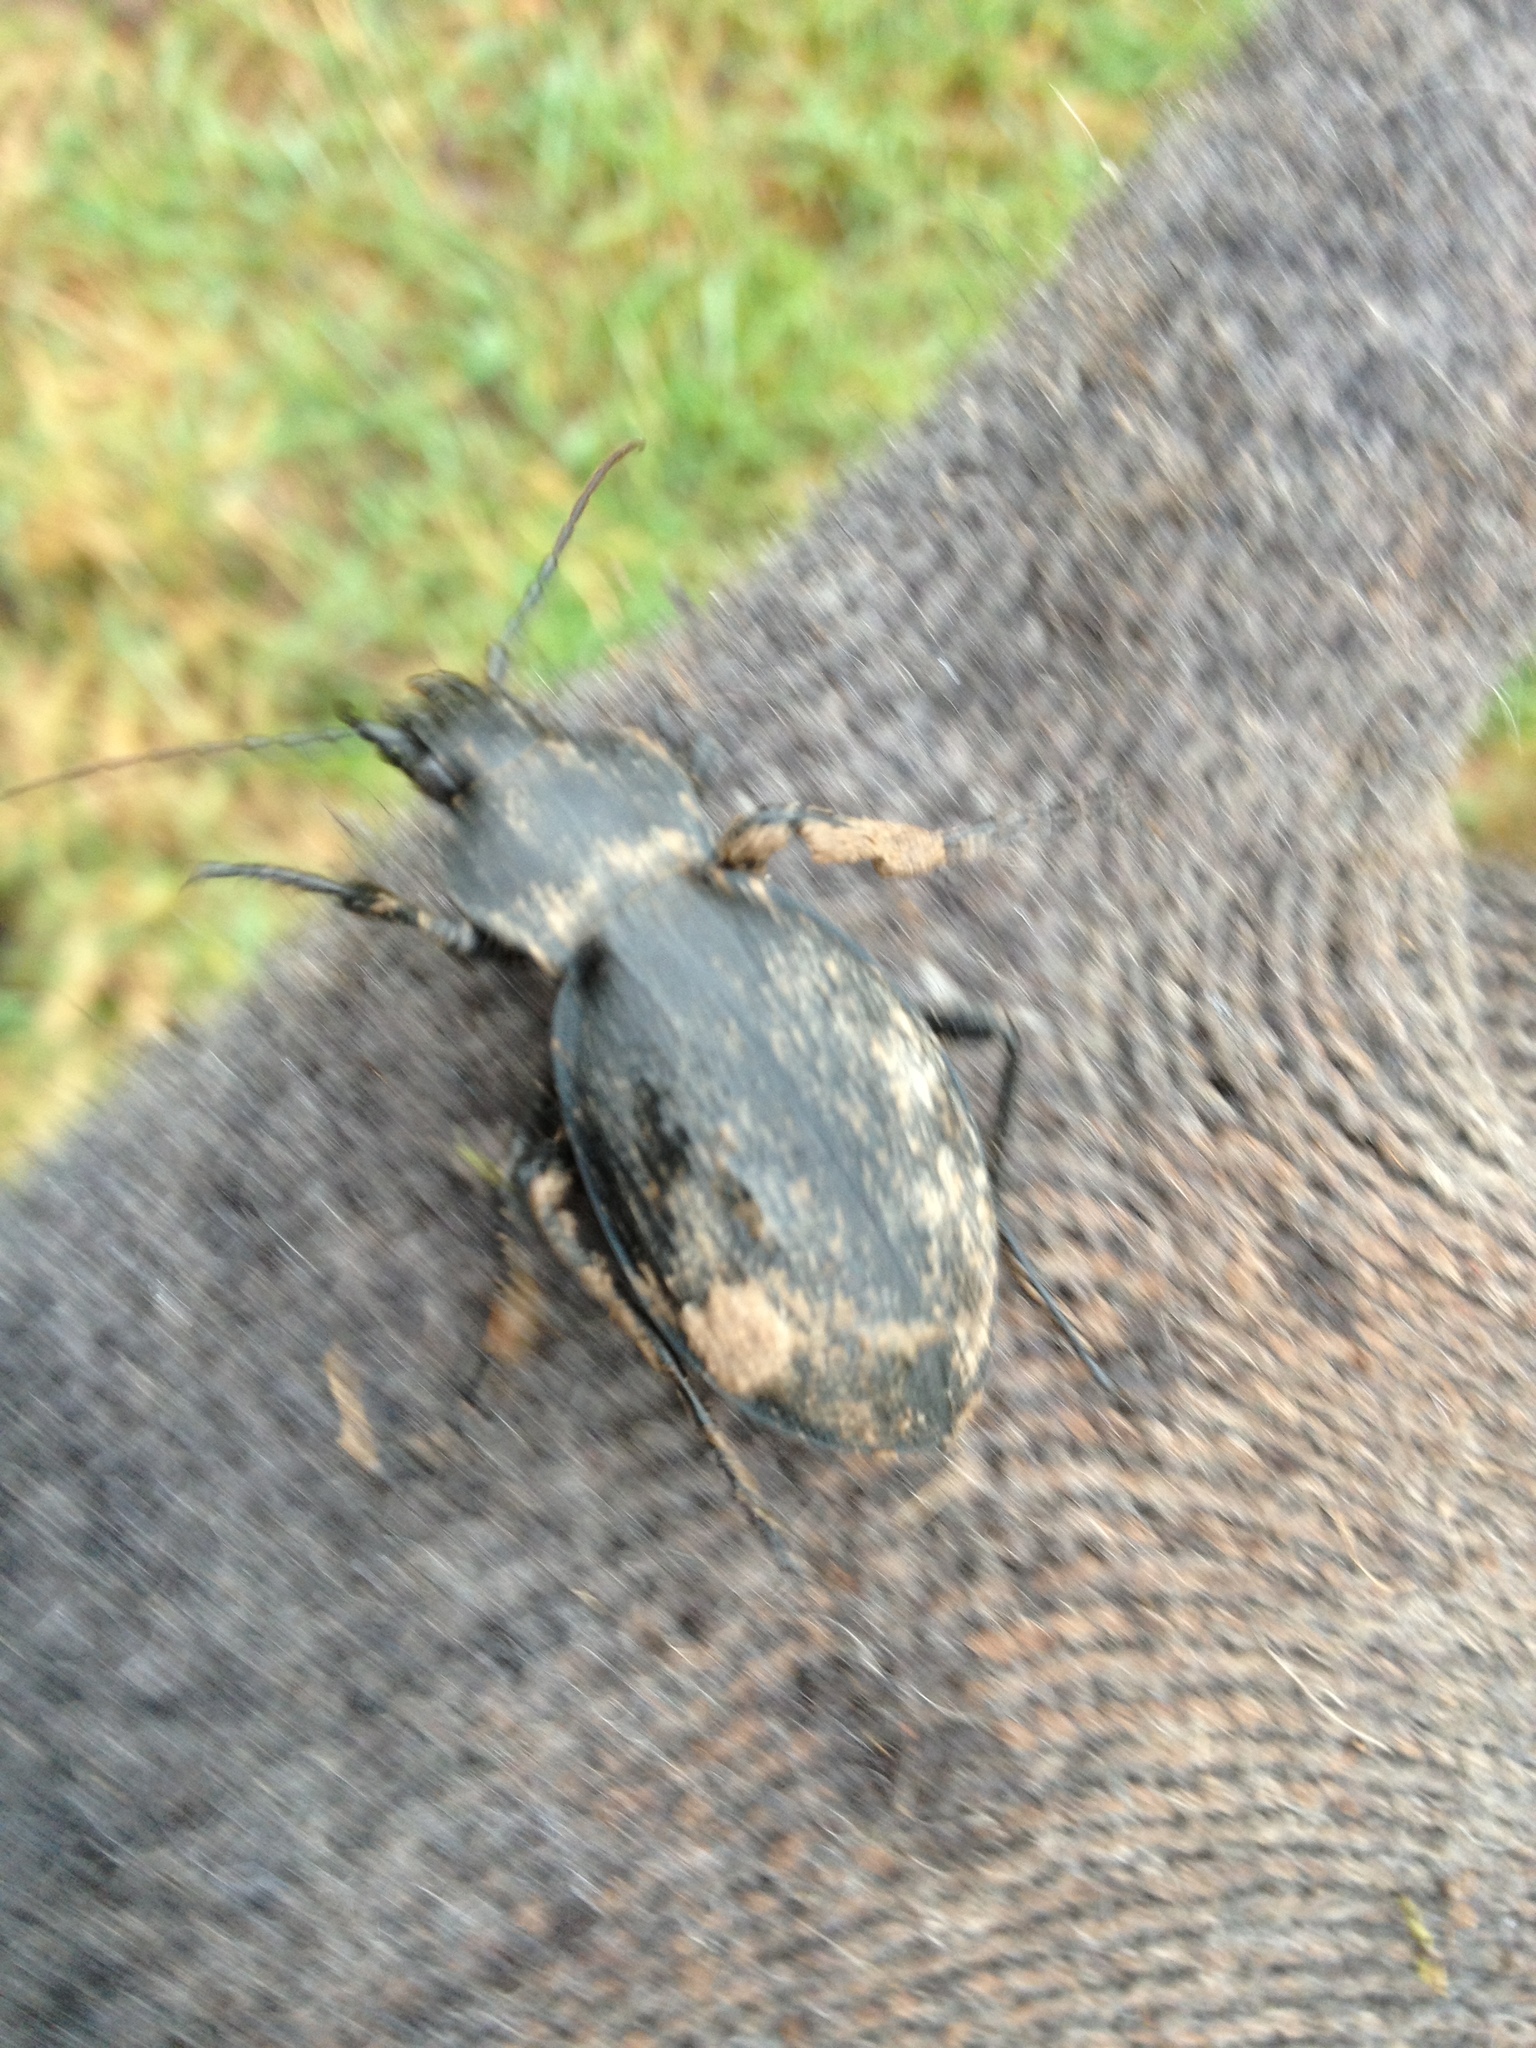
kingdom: Animalia
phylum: Arthropoda
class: Insecta
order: Coleoptera
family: Carabidae
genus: Carabus
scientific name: Carabus coriaceus
